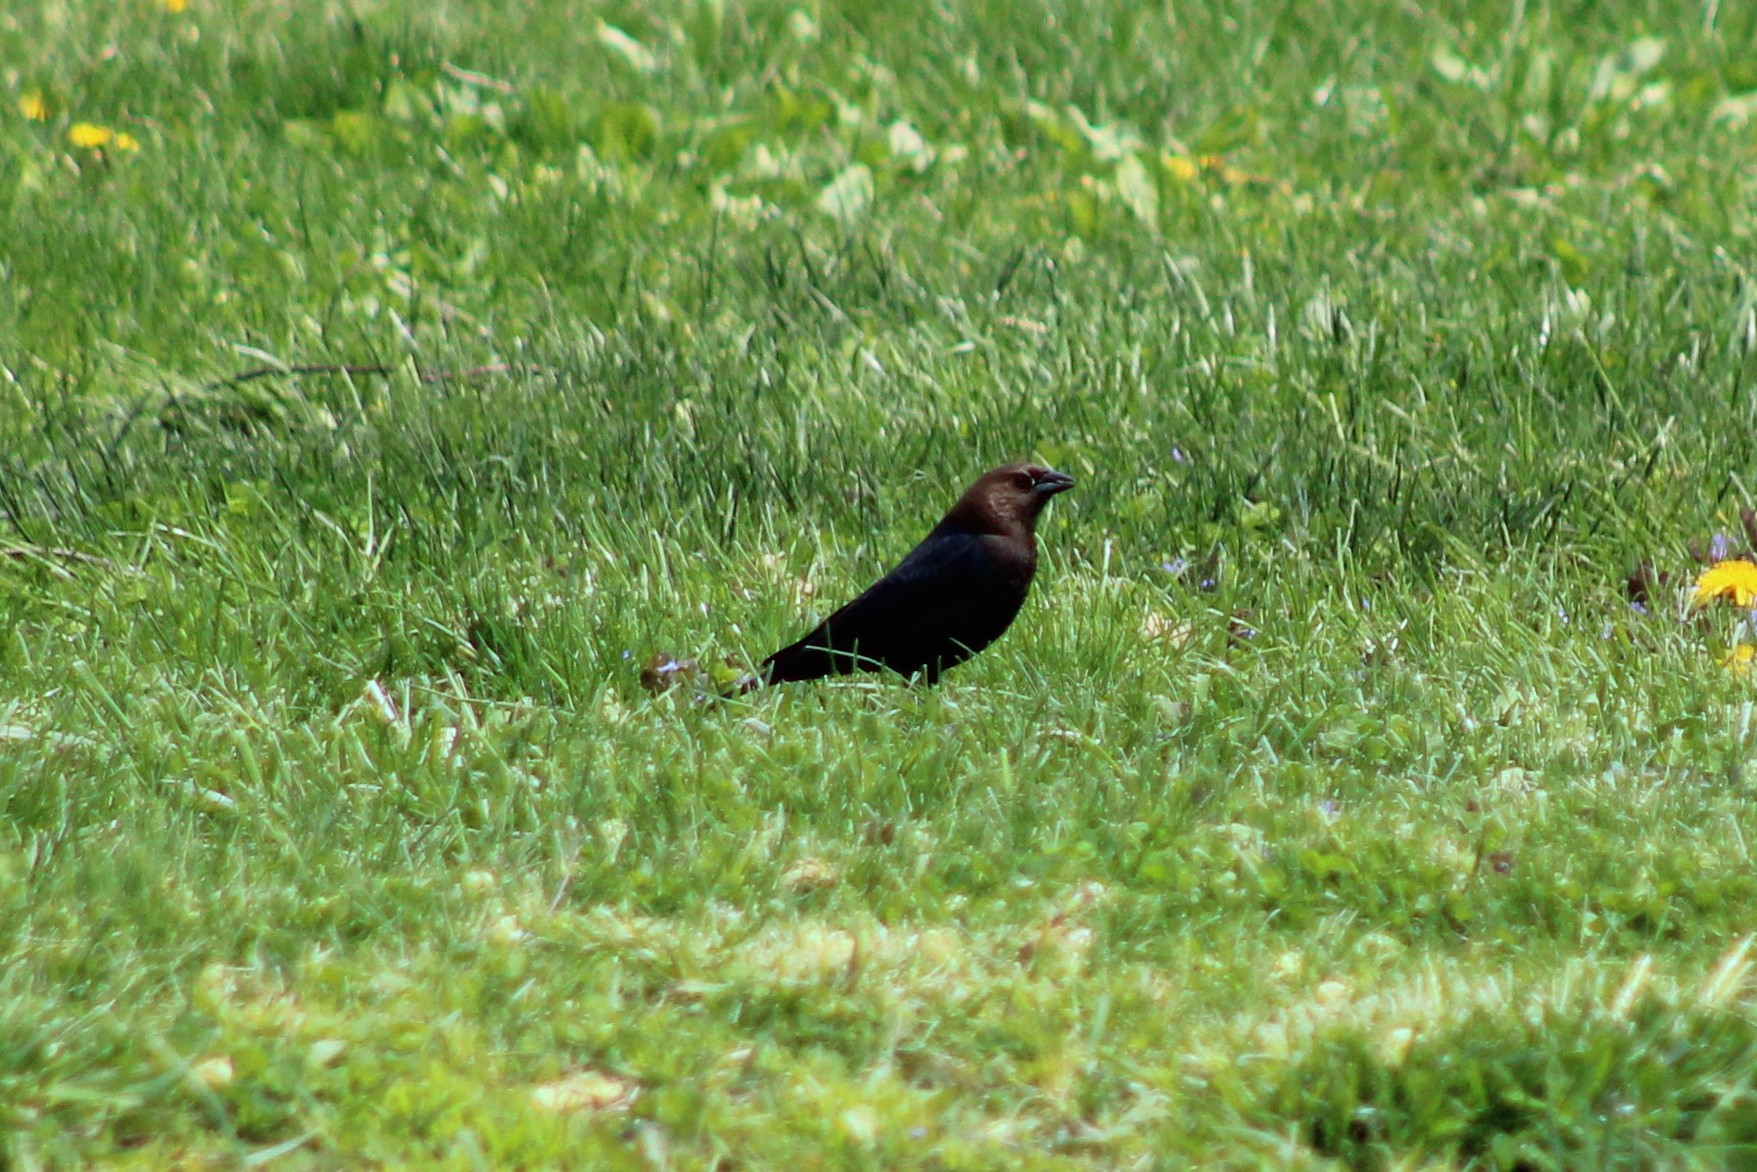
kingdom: Animalia
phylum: Chordata
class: Aves
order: Passeriformes
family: Icteridae
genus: Molothrus
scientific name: Molothrus ater
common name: Brown-headed cowbird
